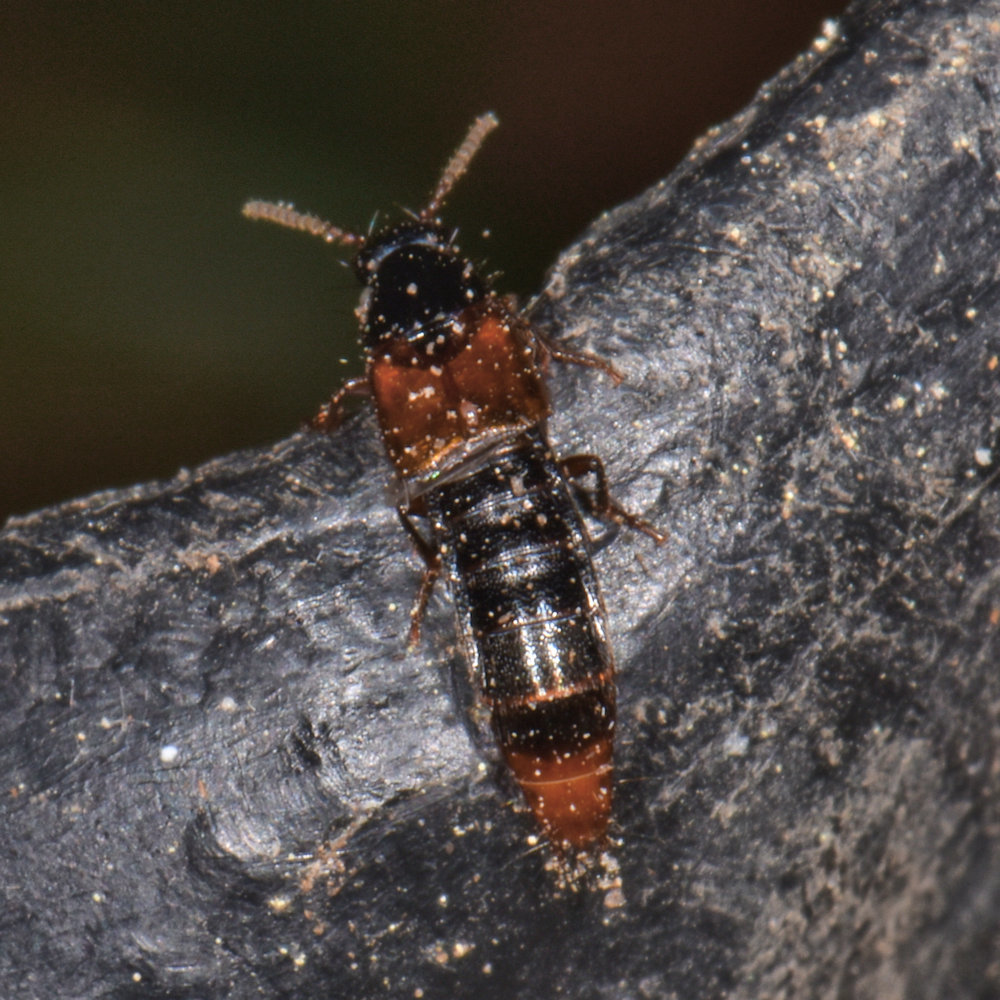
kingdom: Animalia
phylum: Arthropoda
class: Insecta
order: Coleoptera
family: Staphylinidae
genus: Quedius
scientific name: Quedius cruentus
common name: Rove beetle
